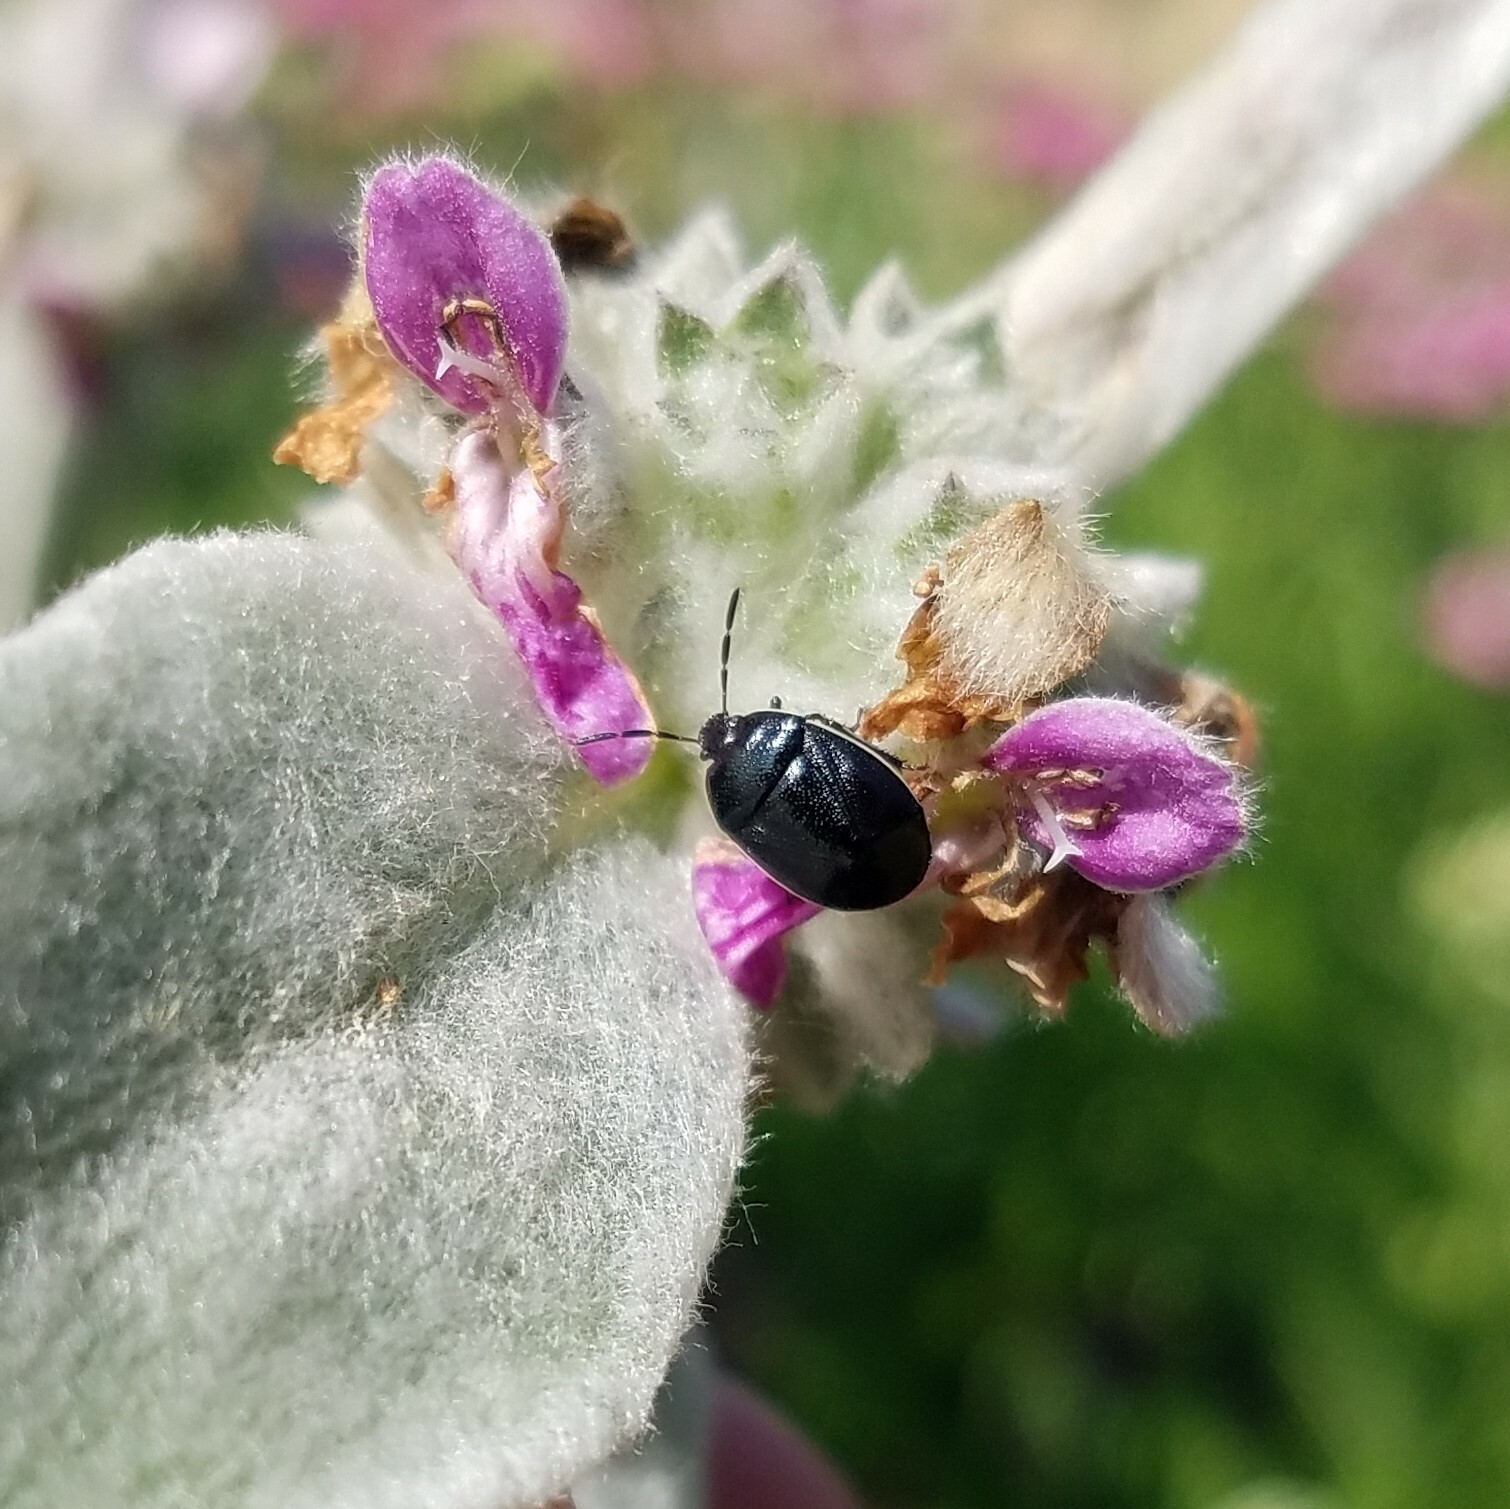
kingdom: Animalia
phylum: Arthropoda
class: Insecta
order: Hemiptera
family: Cydnidae
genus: Sehirus
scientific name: Sehirus cinctus
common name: White-margined burrower bug
